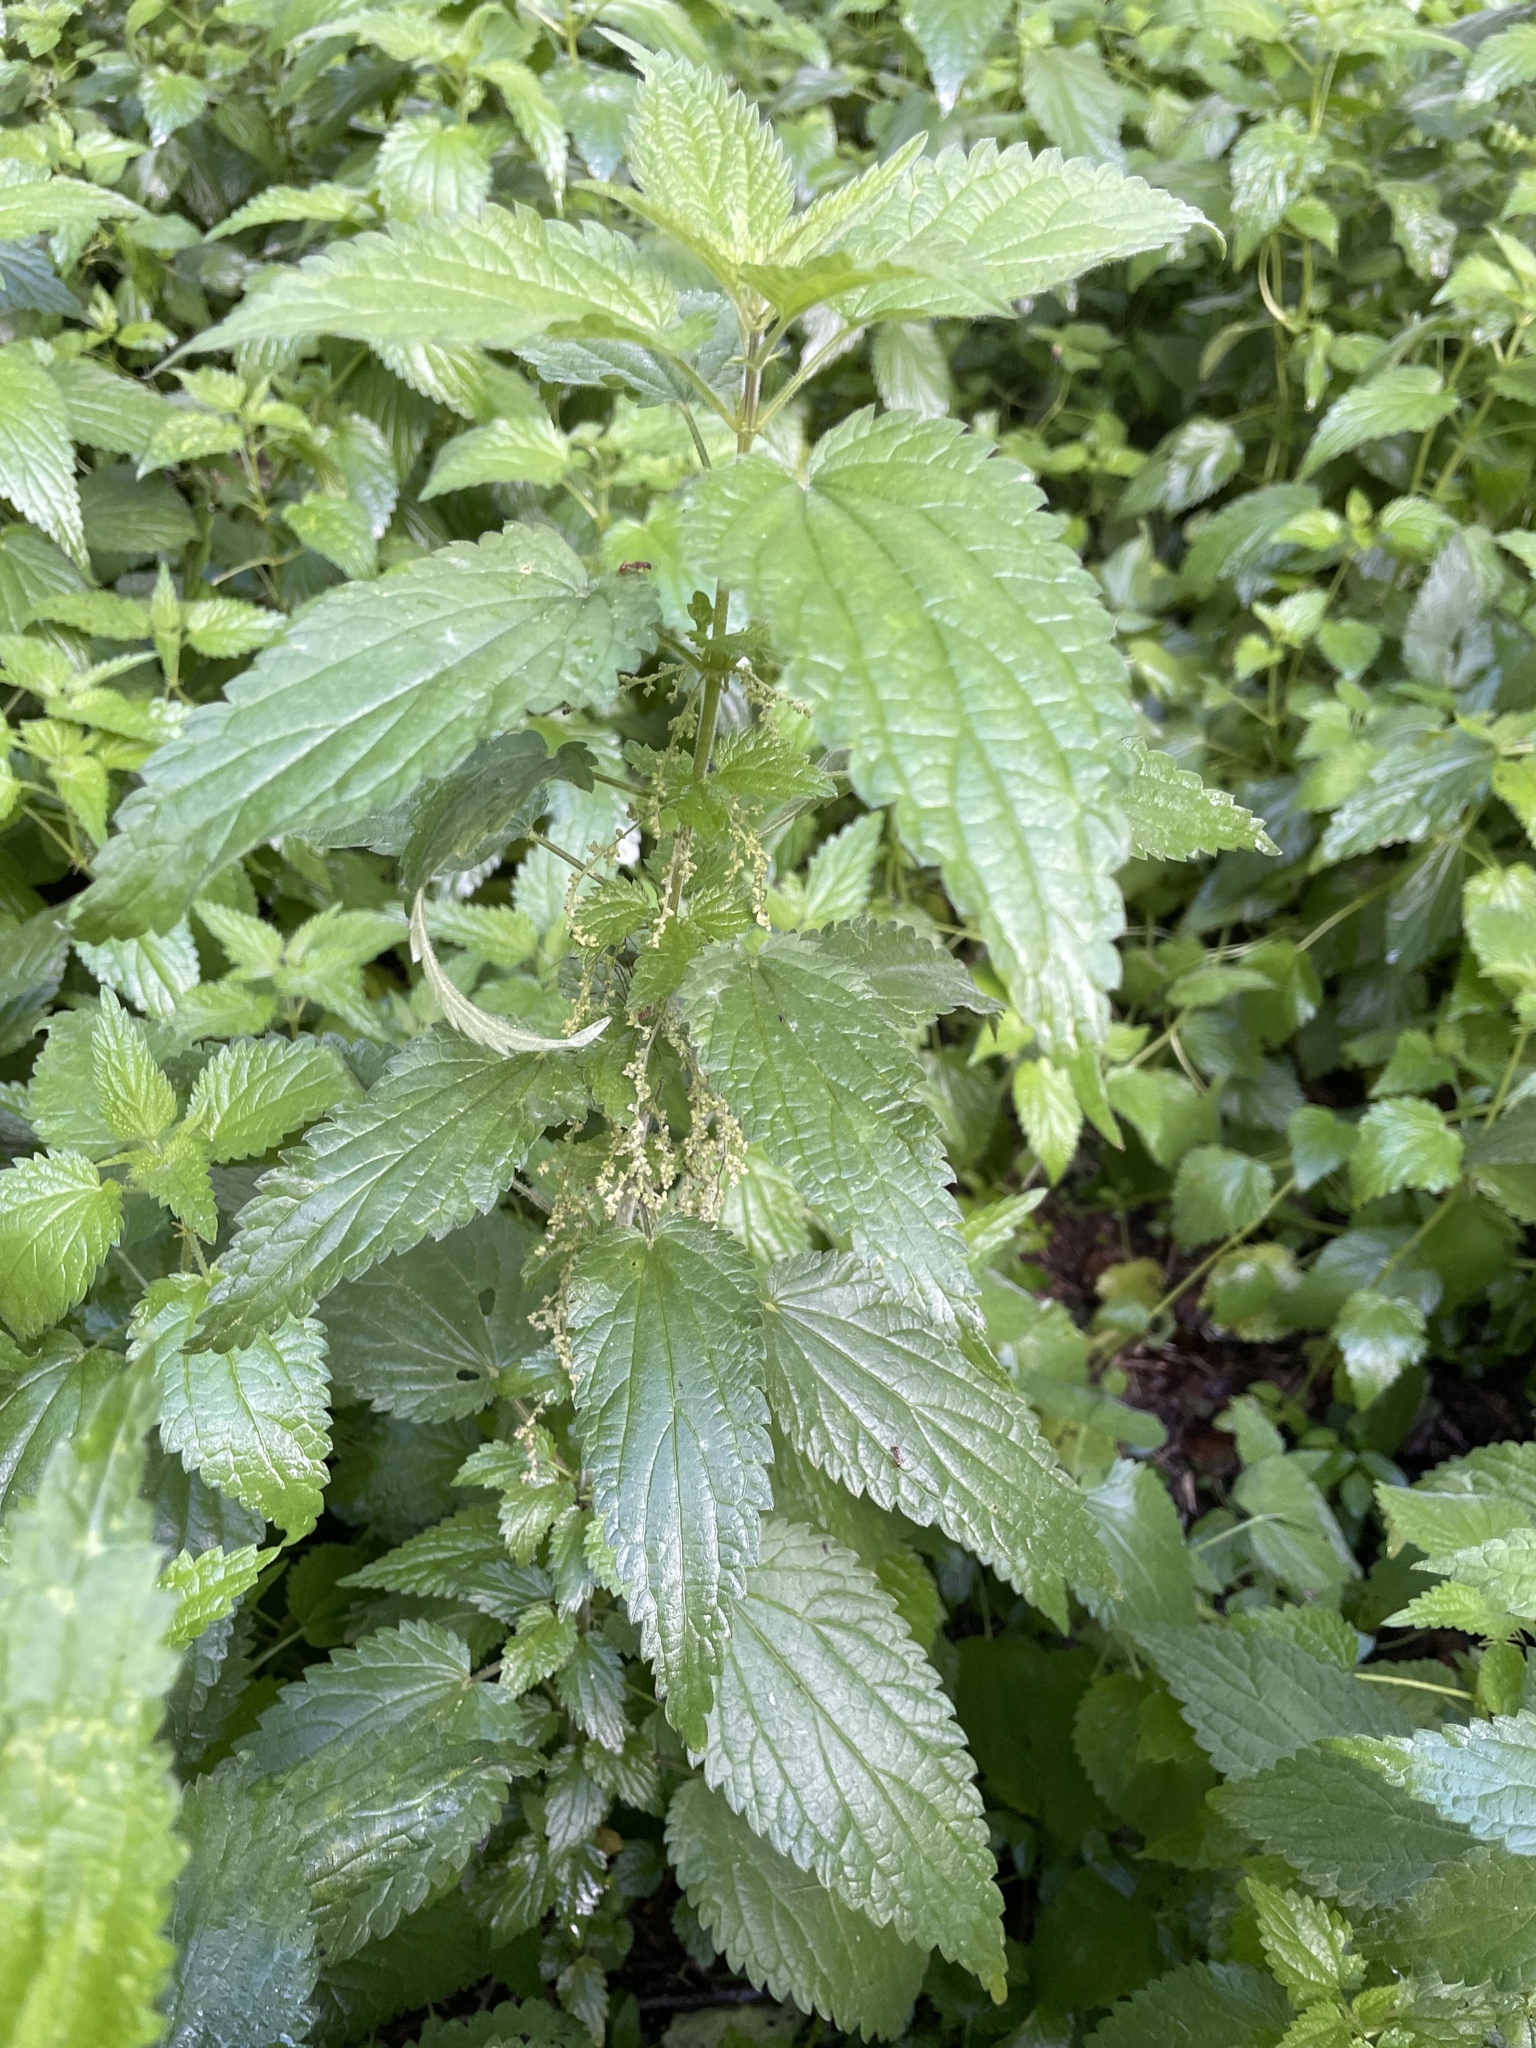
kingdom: Plantae
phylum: Tracheophyta
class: Magnoliopsida
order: Rosales
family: Urticaceae
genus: Urtica
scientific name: Urtica dioica
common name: Common nettle
